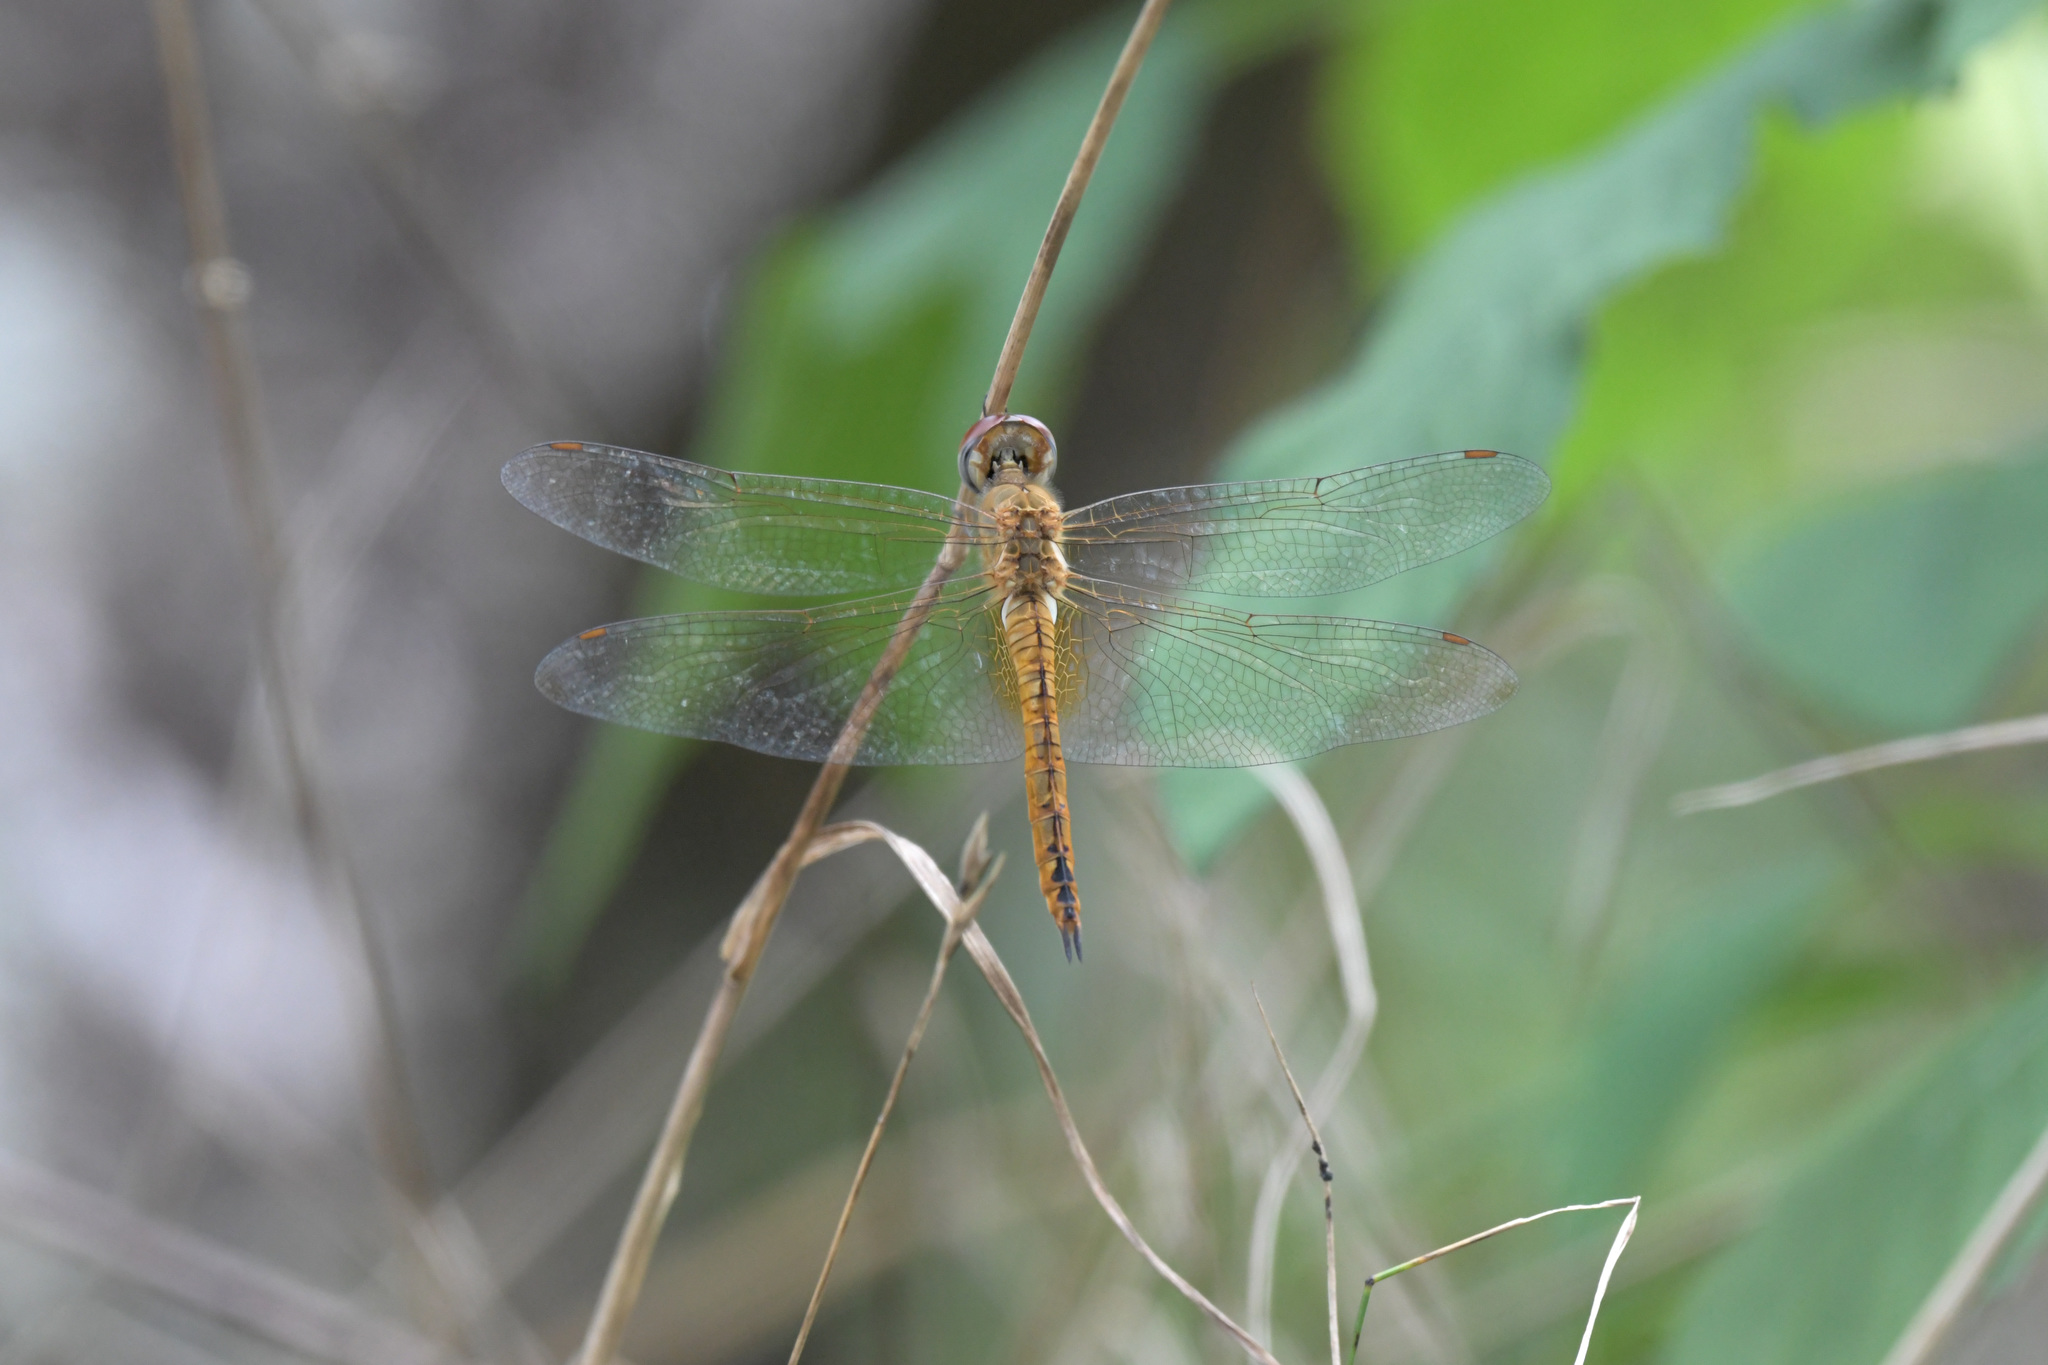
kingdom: Animalia
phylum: Arthropoda
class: Insecta
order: Odonata
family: Libellulidae
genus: Pantala
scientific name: Pantala flavescens
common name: Wandering glider
